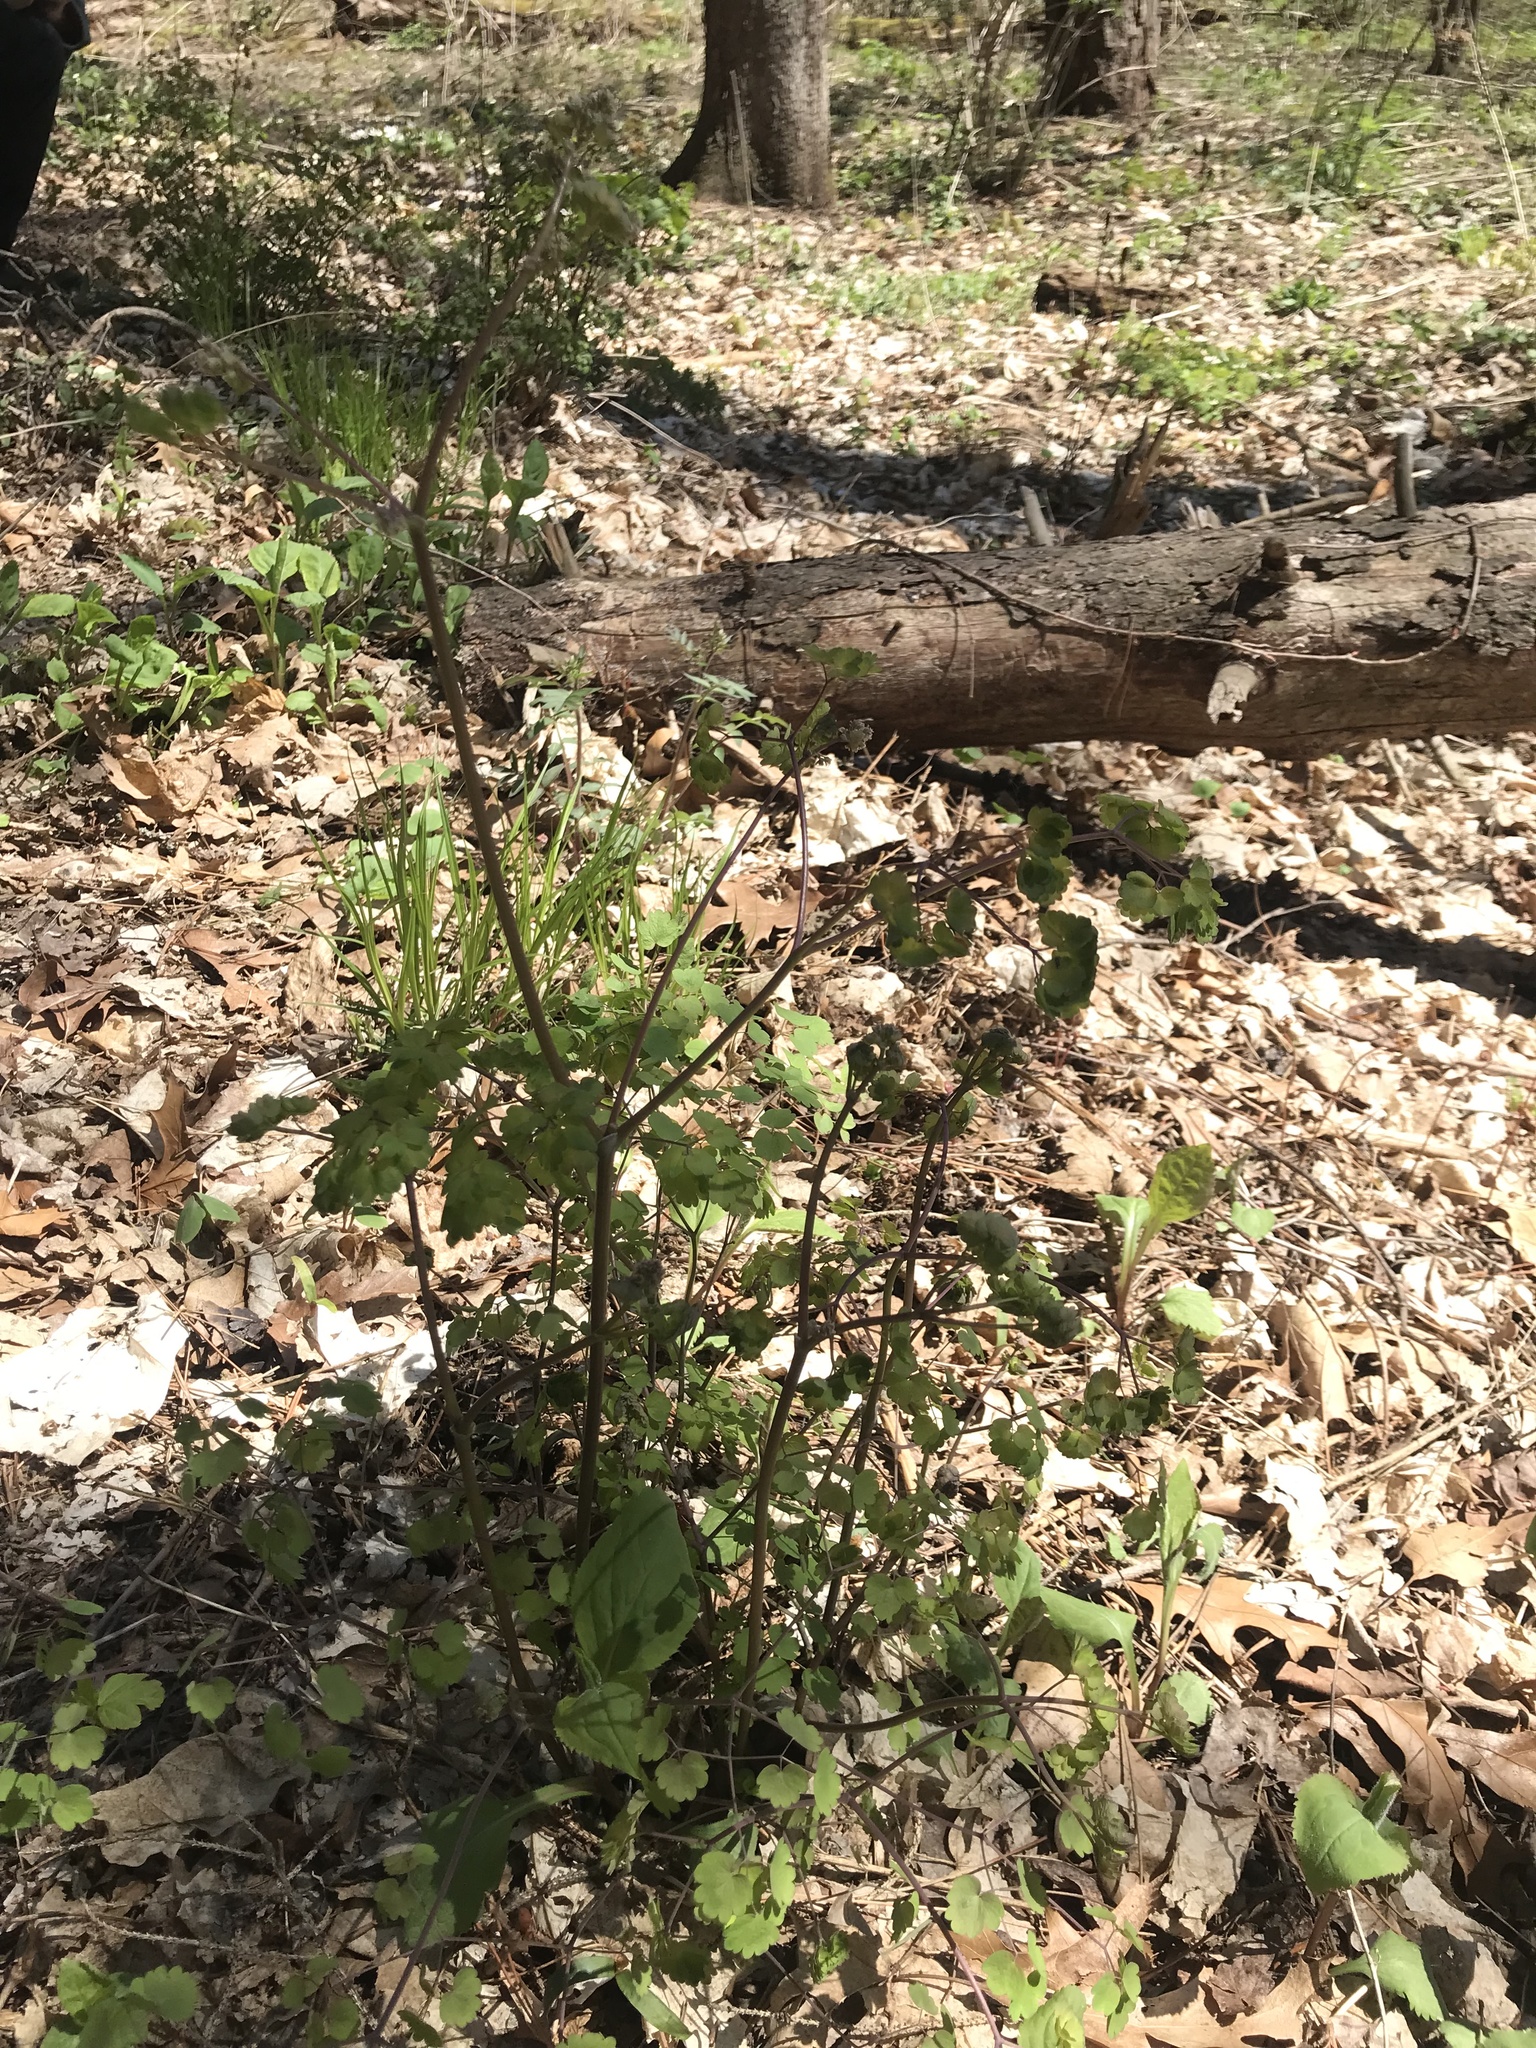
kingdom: Plantae
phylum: Tracheophyta
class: Magnoliopsida
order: Ranunculales
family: Ranunculaceae
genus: Thalictrum
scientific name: Thalictrum dioicum
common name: Early meadow-rue
